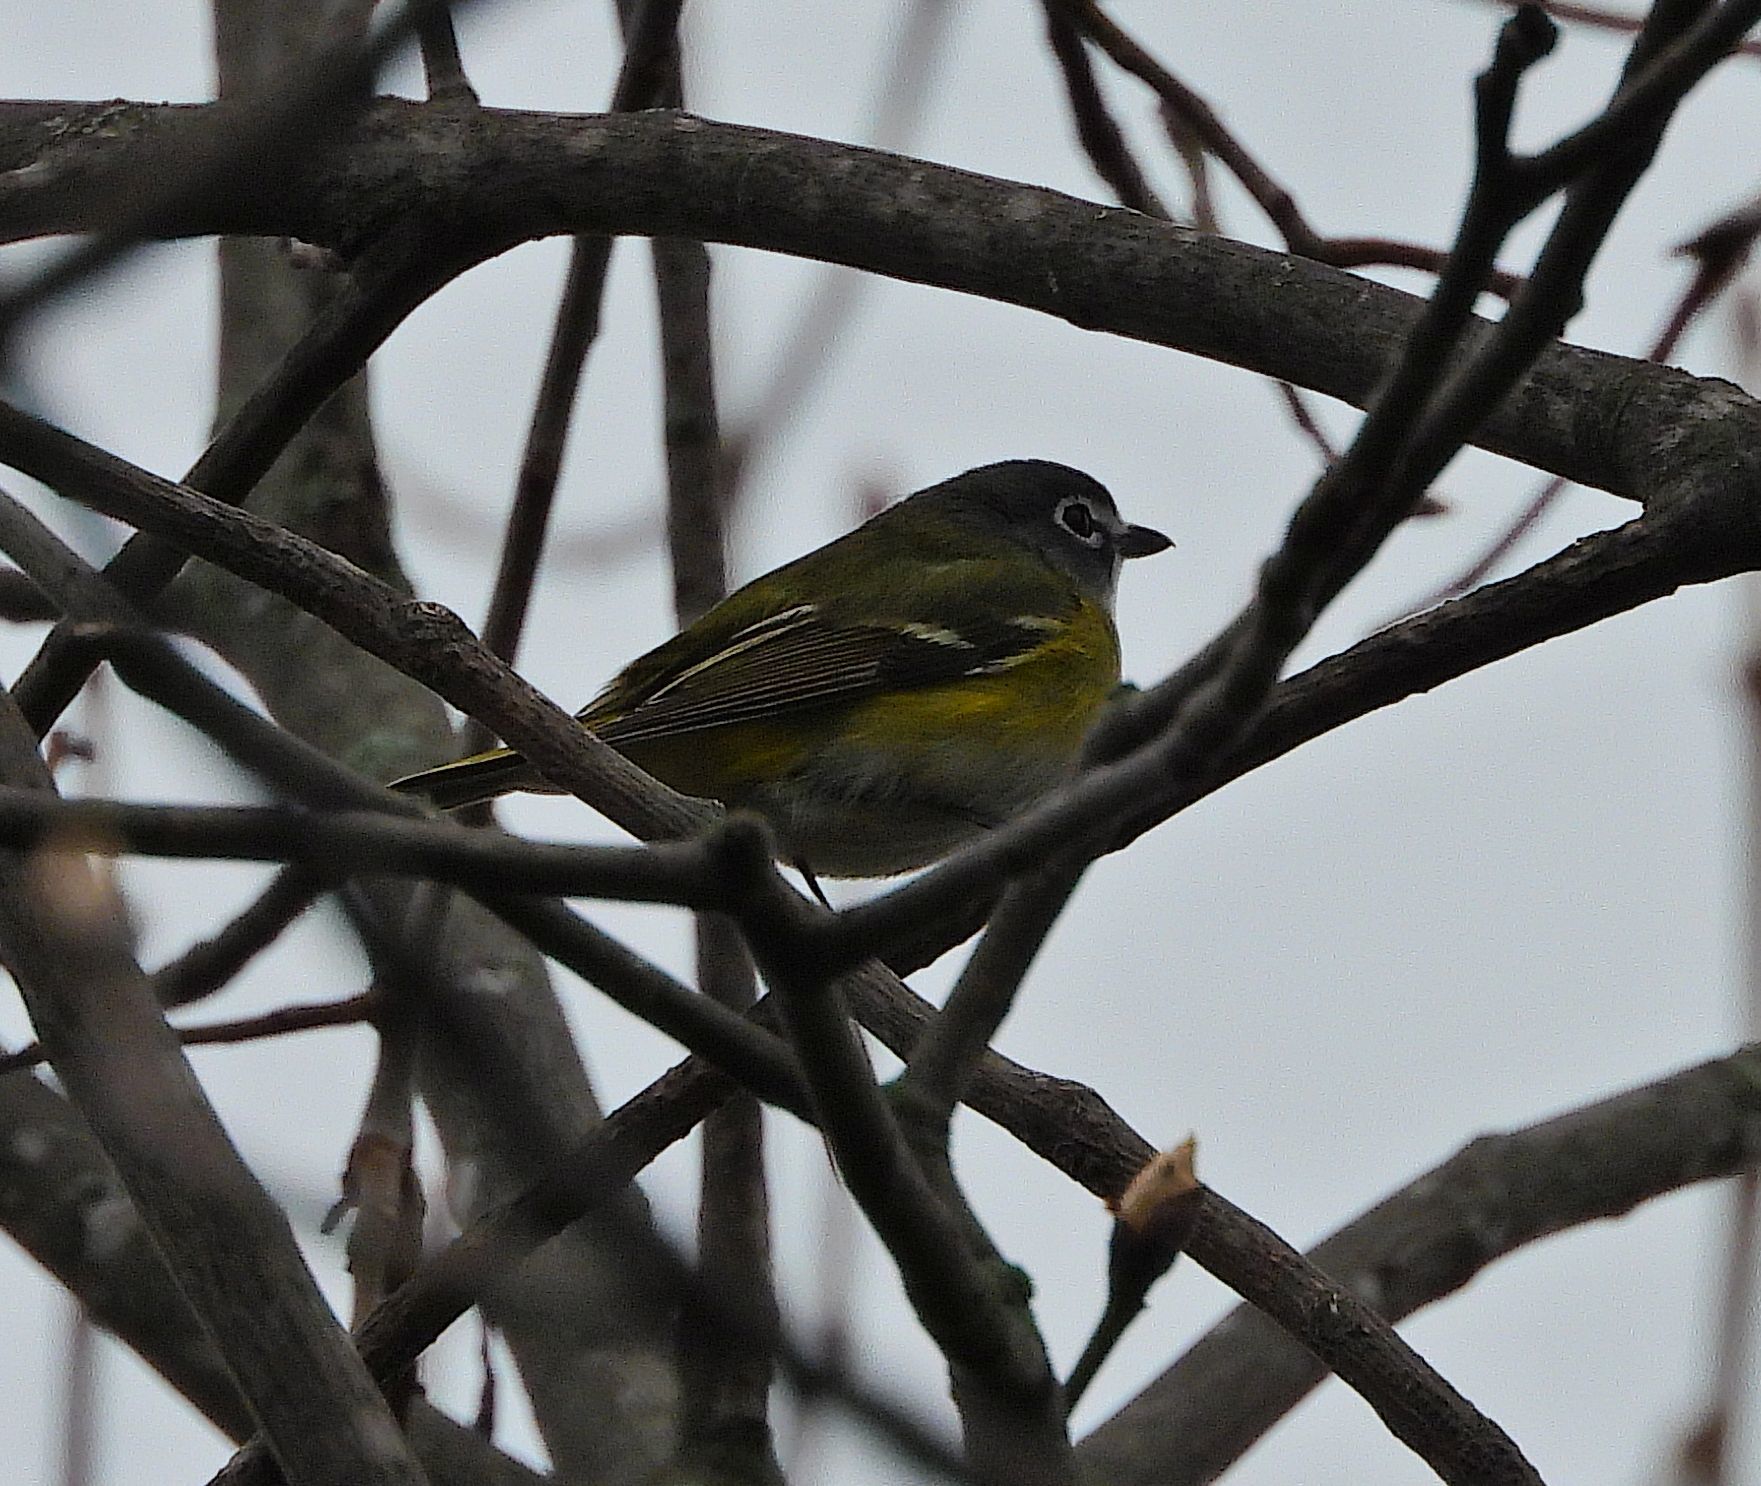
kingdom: Animalia
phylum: Chordata
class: Aves
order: Passeriformes
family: Vireonidae
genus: Vireo
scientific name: Vireo solitarius
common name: Blue-headed vireo
